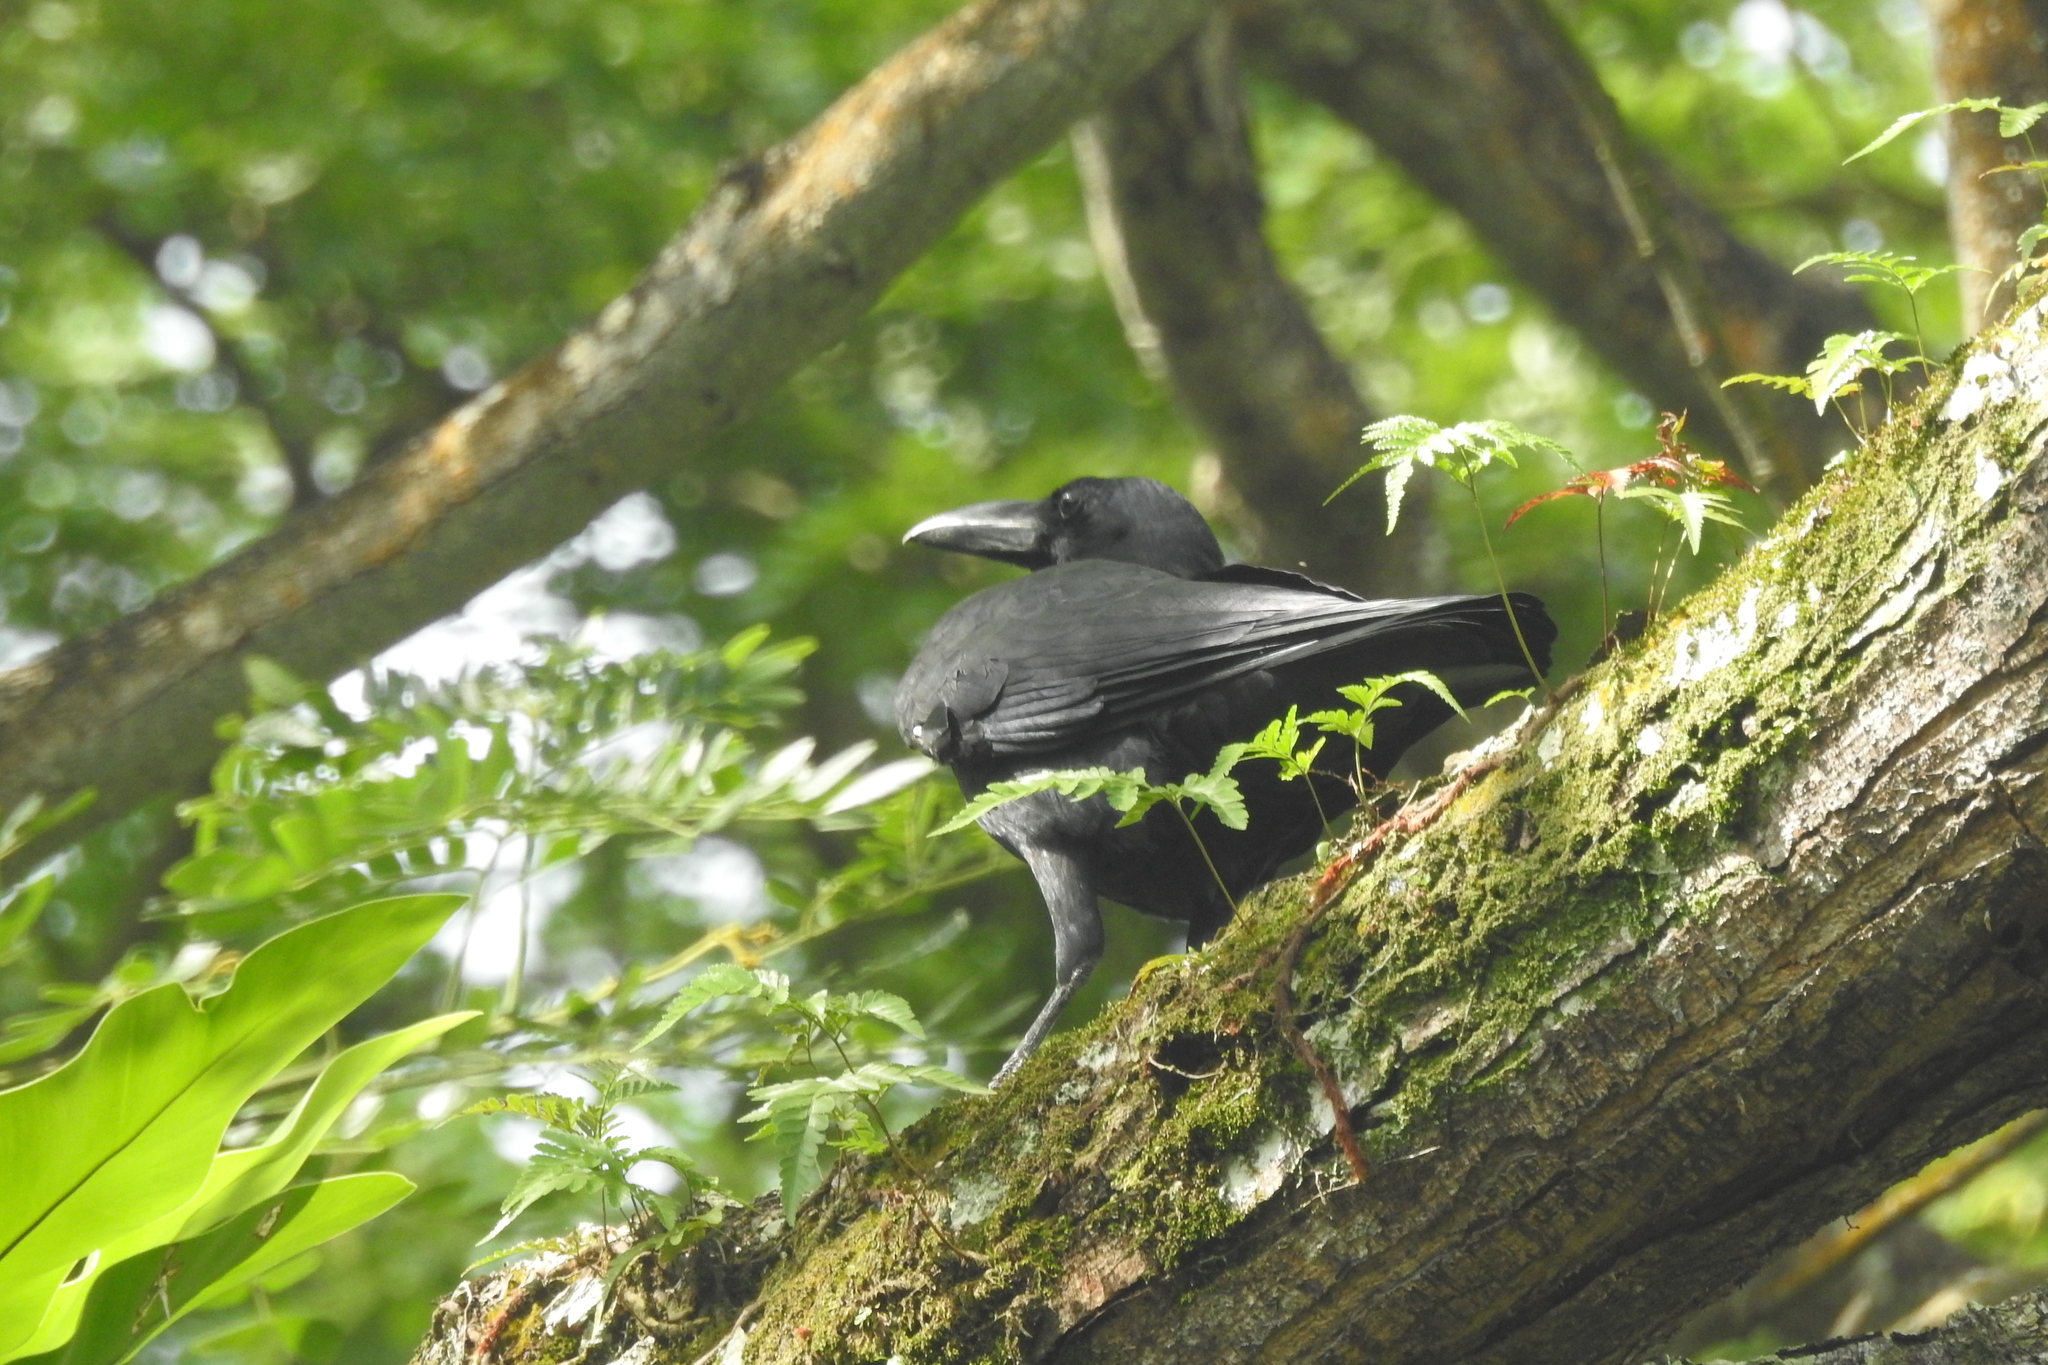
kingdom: Animalia
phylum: Chordata
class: Aves
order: Passeriformes
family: Corvidae
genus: Corvus
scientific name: Corvus macrorhynchos
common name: Large-billed crow
